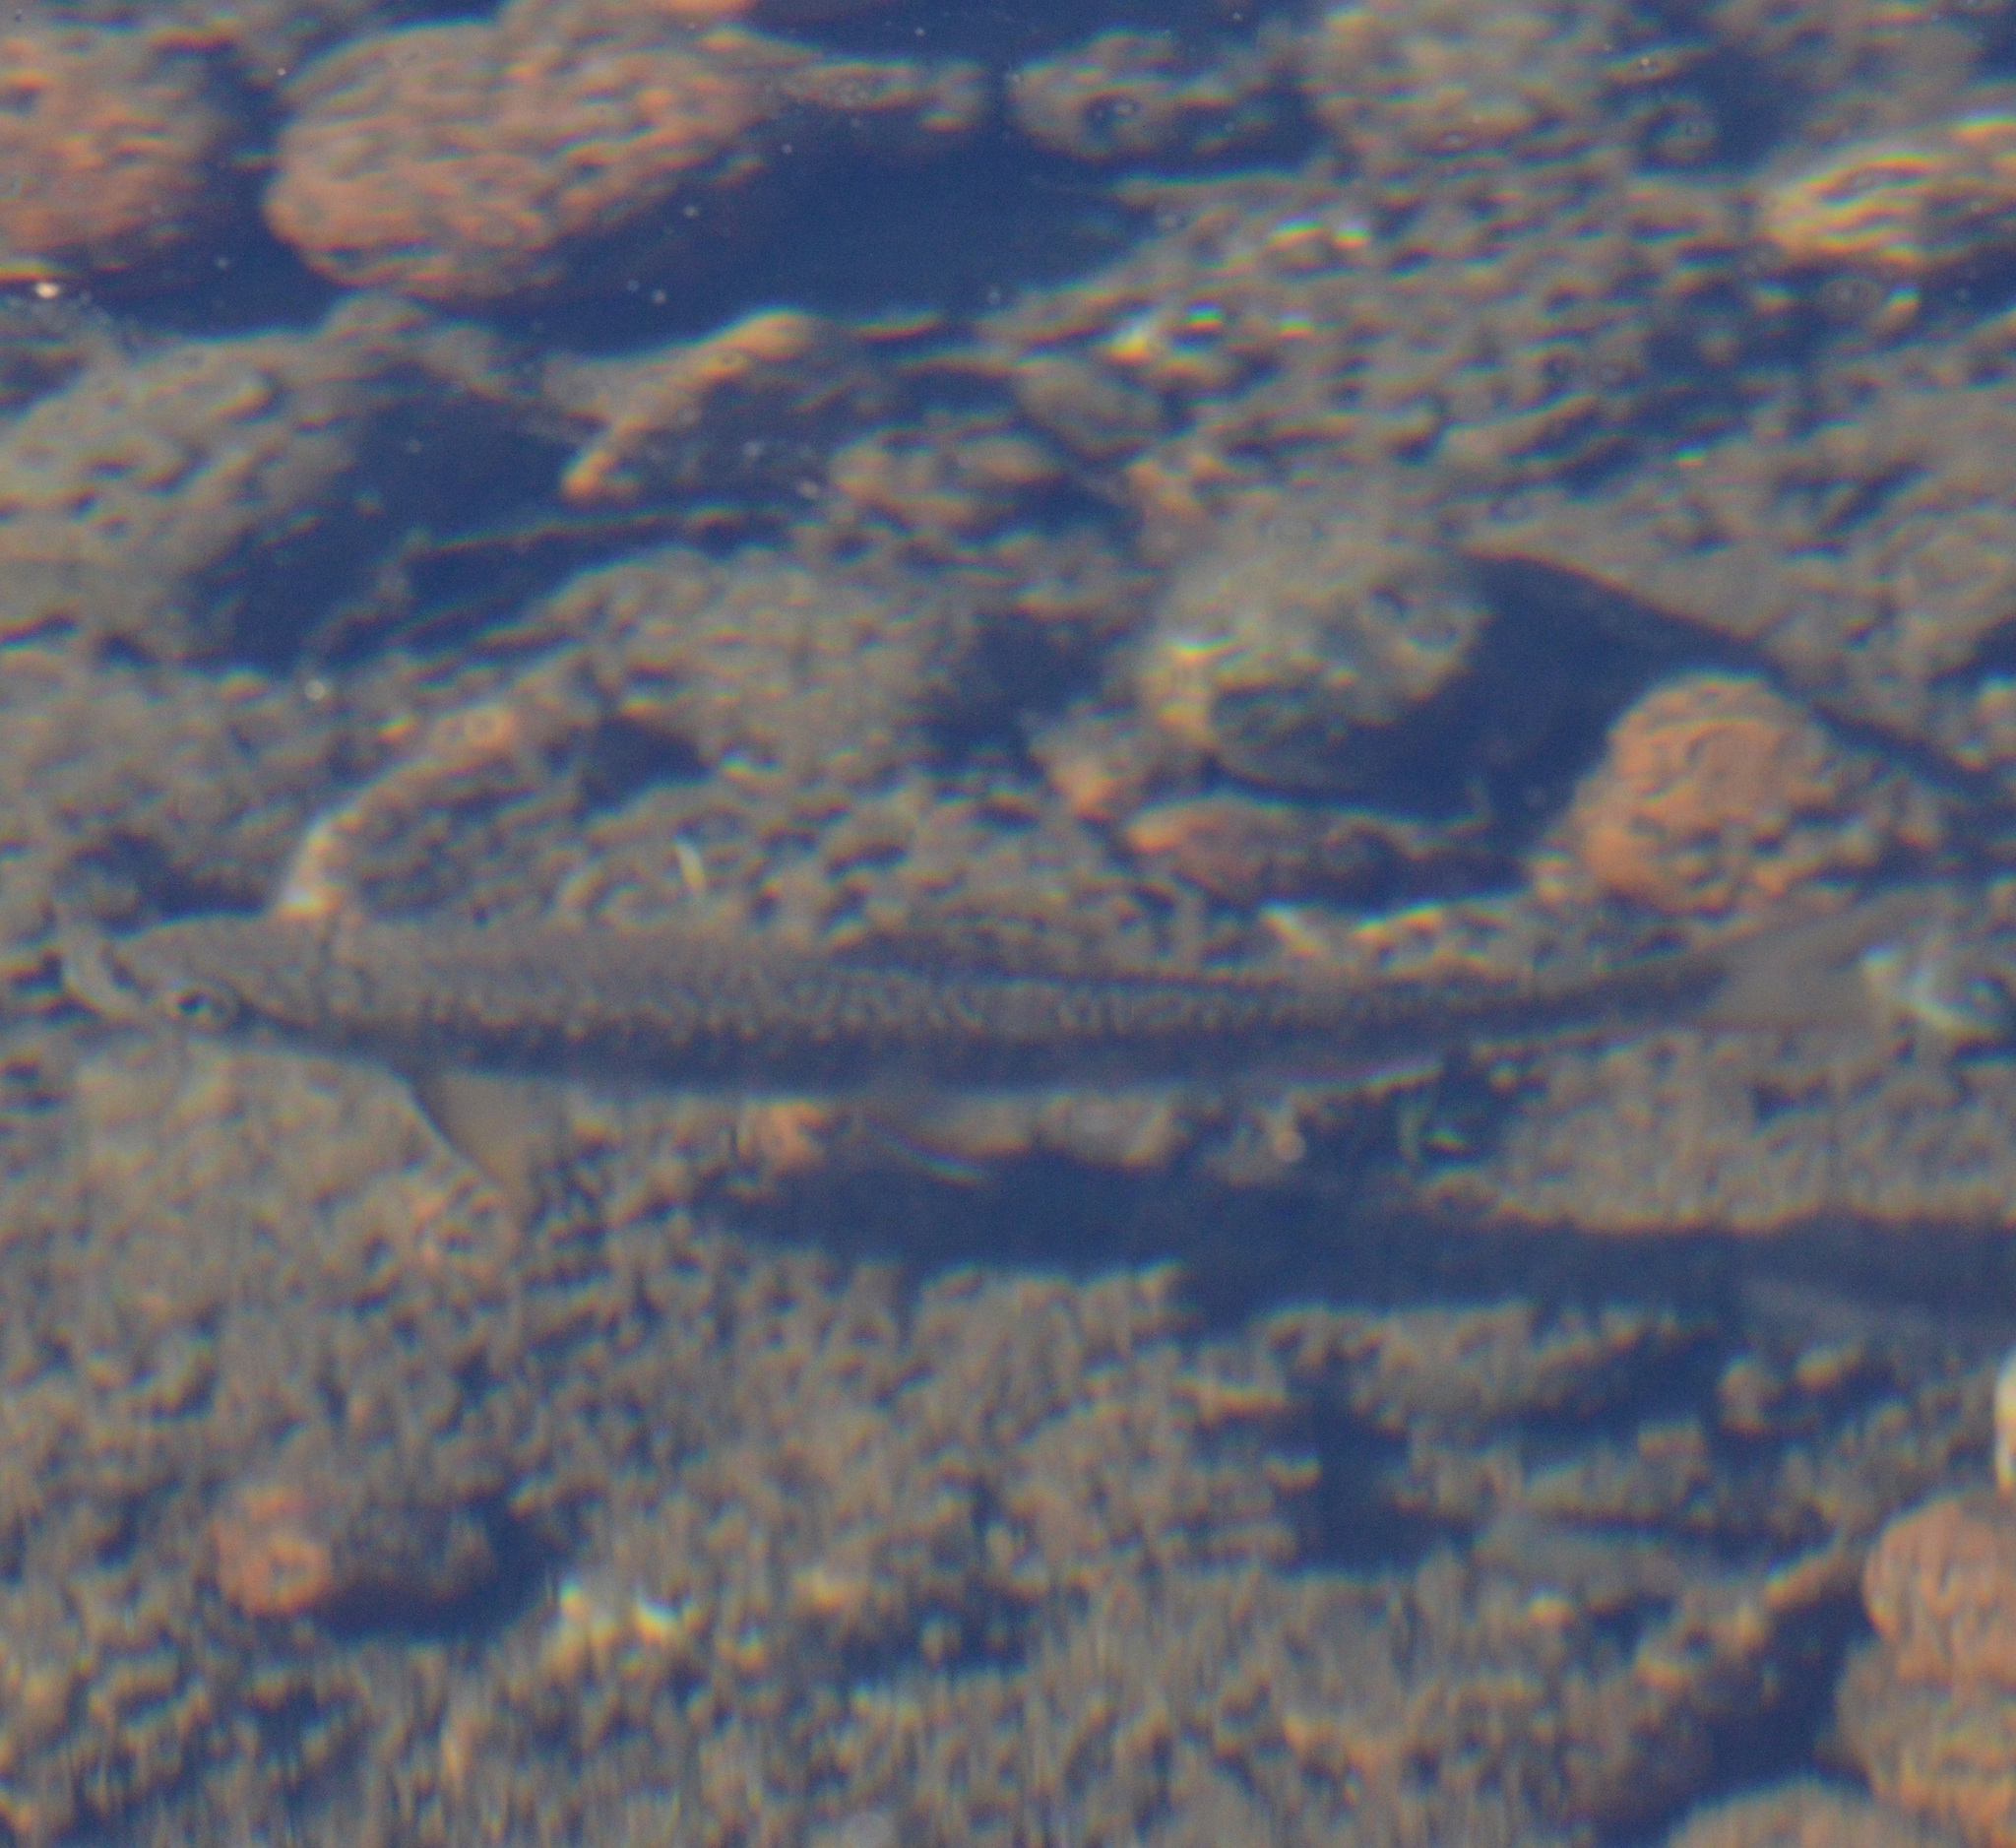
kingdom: Animalia
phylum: Chordata
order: Salmoniformes
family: Salmonidae
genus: Salvelinus
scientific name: Salvelinus fontinalis
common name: Brook trout
